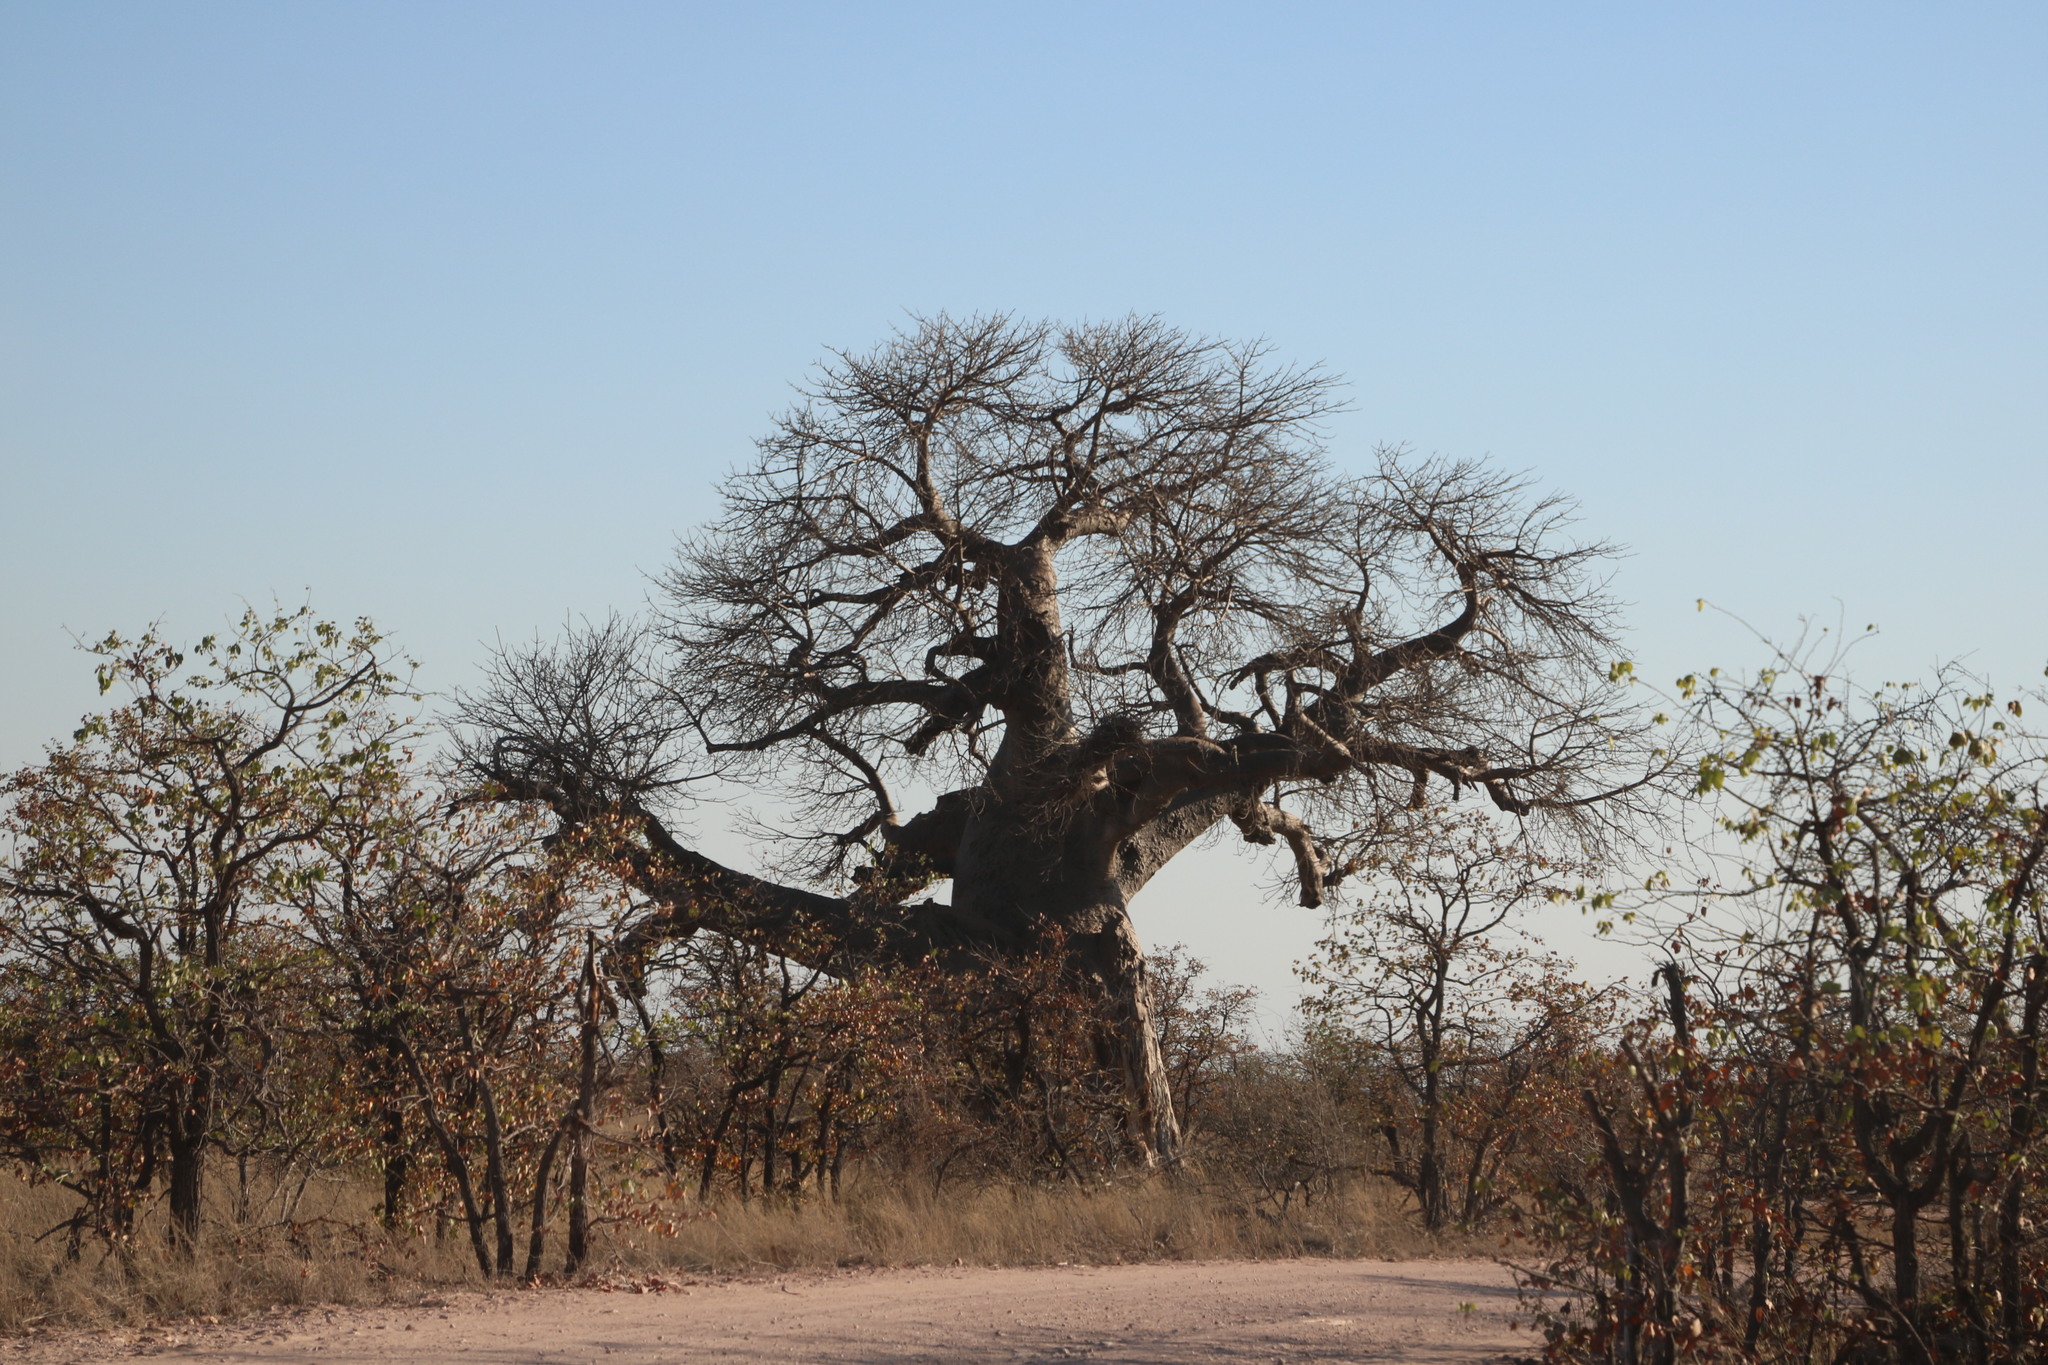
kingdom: Plantae
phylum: Tracheophyta
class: Magnoliopsida
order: Malvales
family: Malvaceae
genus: Adansonia
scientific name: Adansonia digitata
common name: Dead-rat-tree
